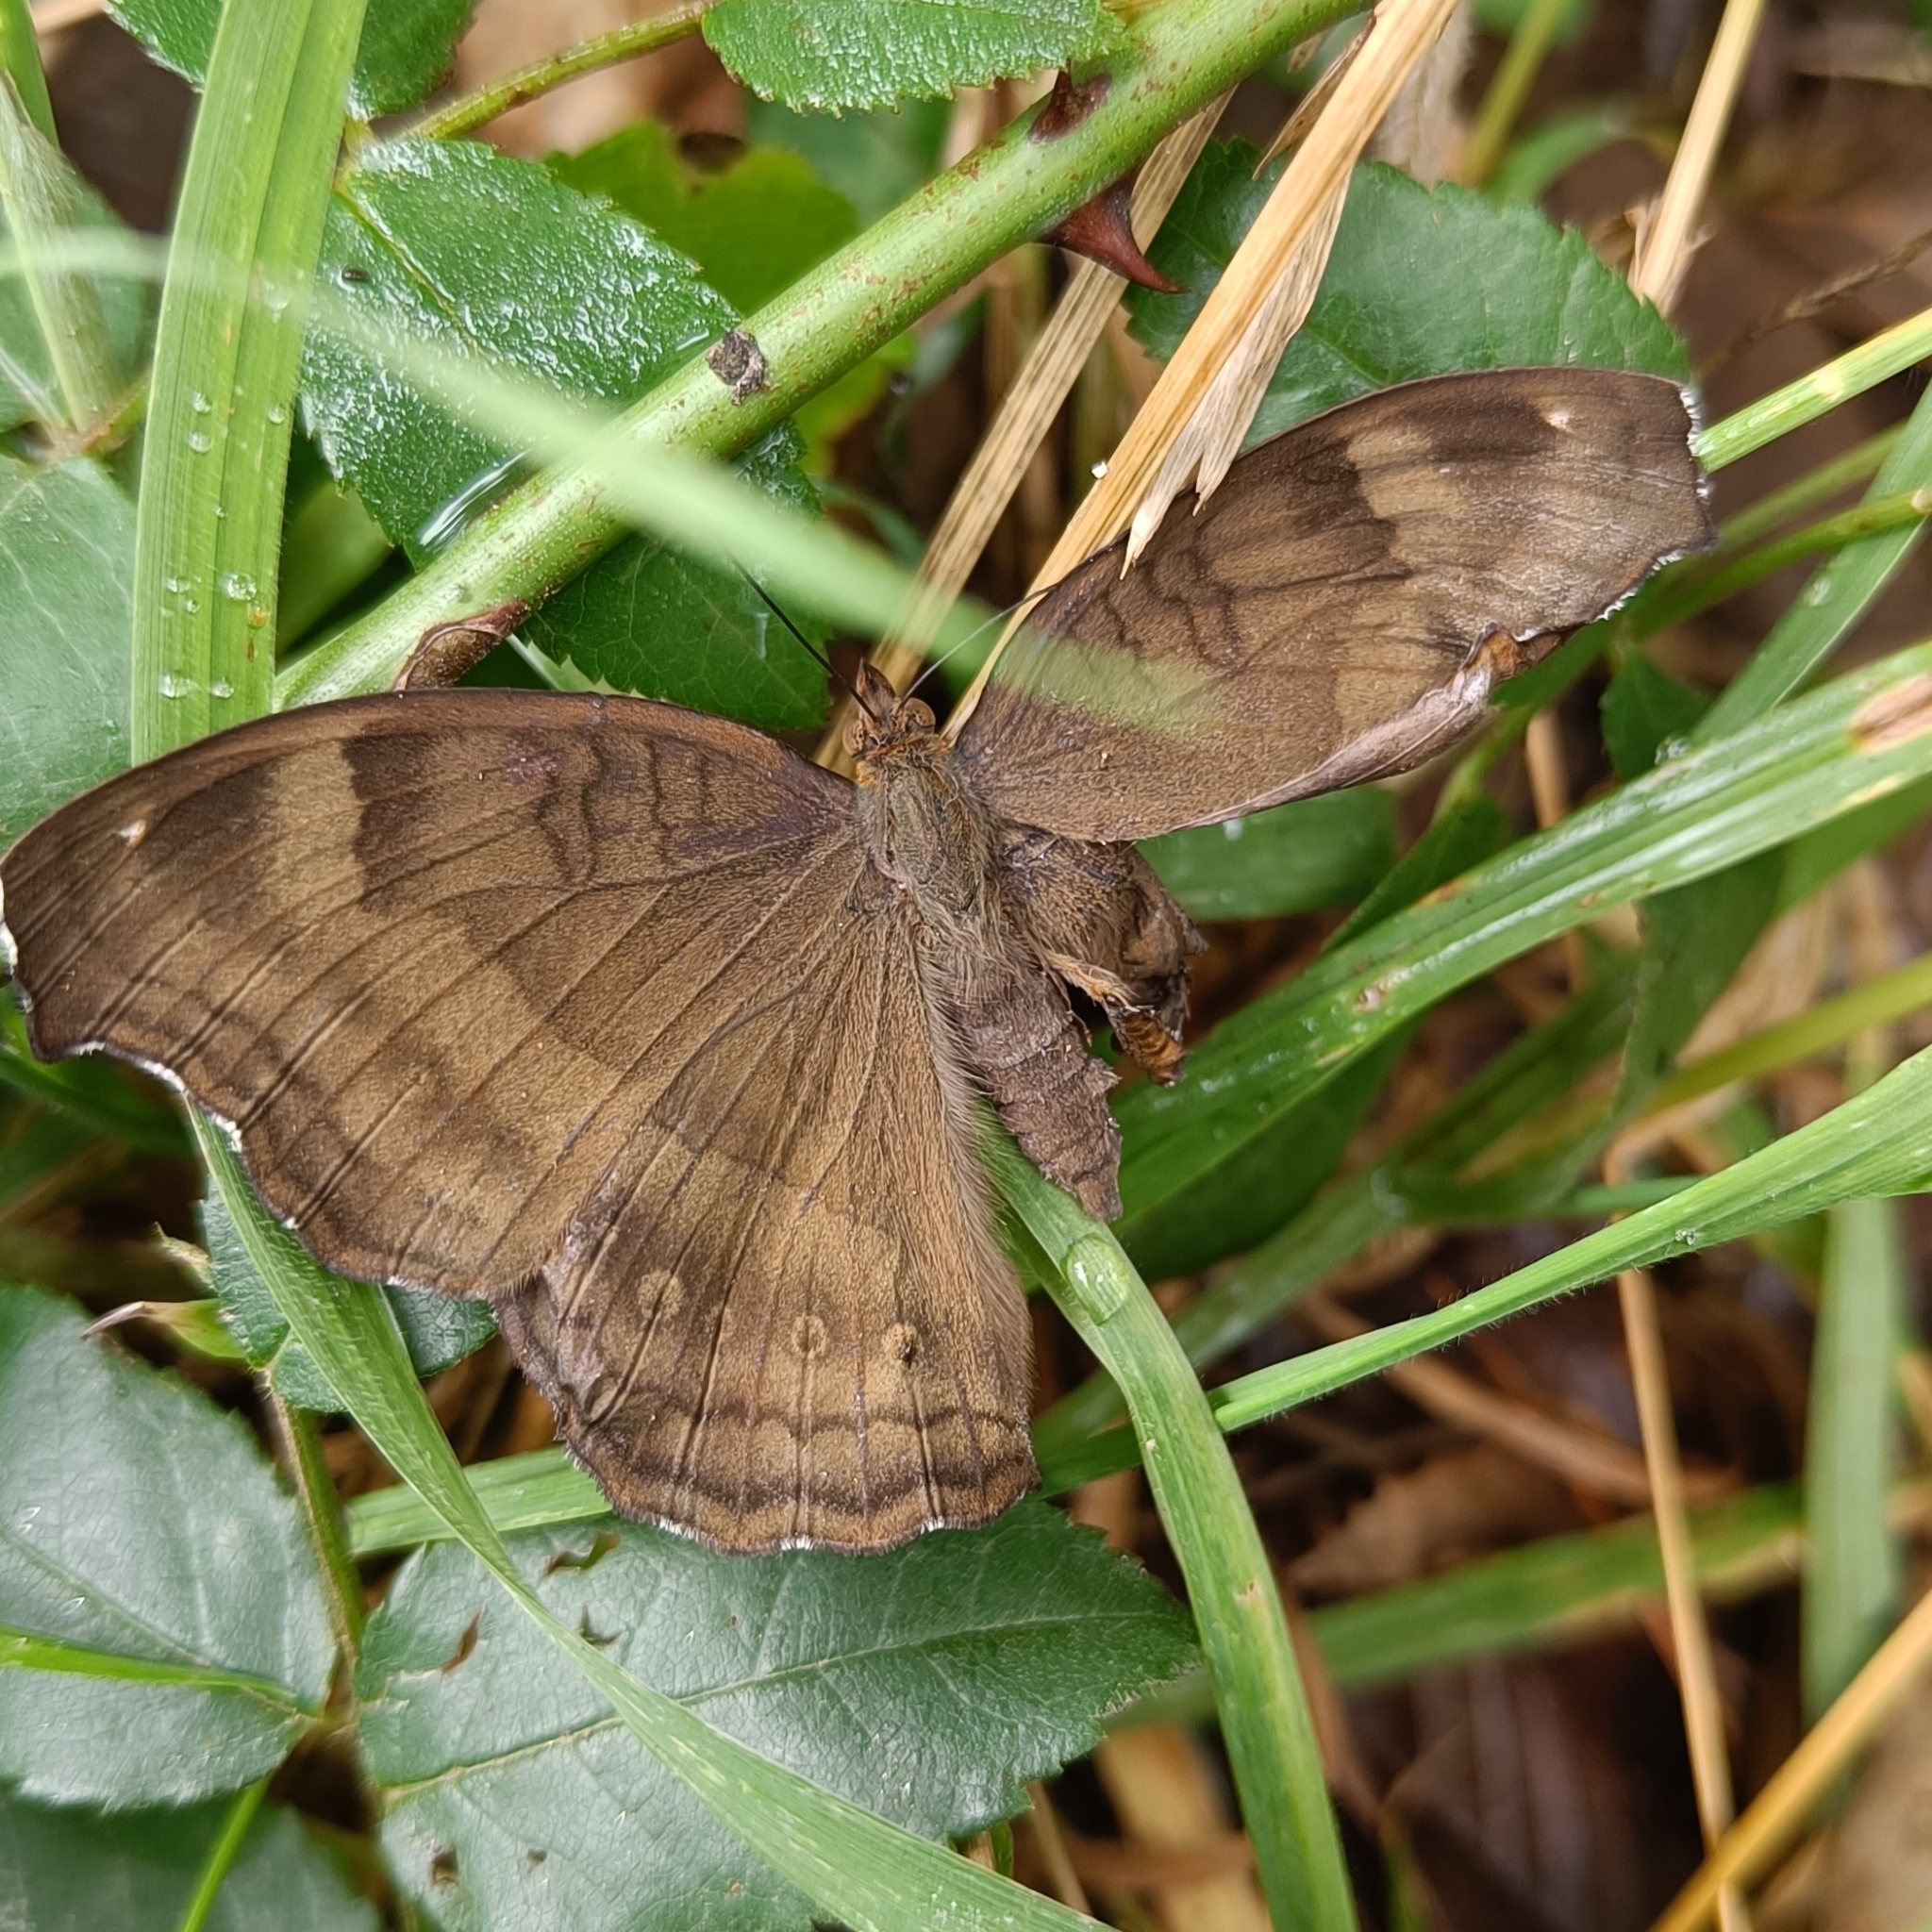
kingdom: Animalia
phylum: Arthropoda
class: Insecta
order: Lepidoptera
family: Nymphalidae
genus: Junonia
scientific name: Junonia iphita
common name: Chocolate pansy
